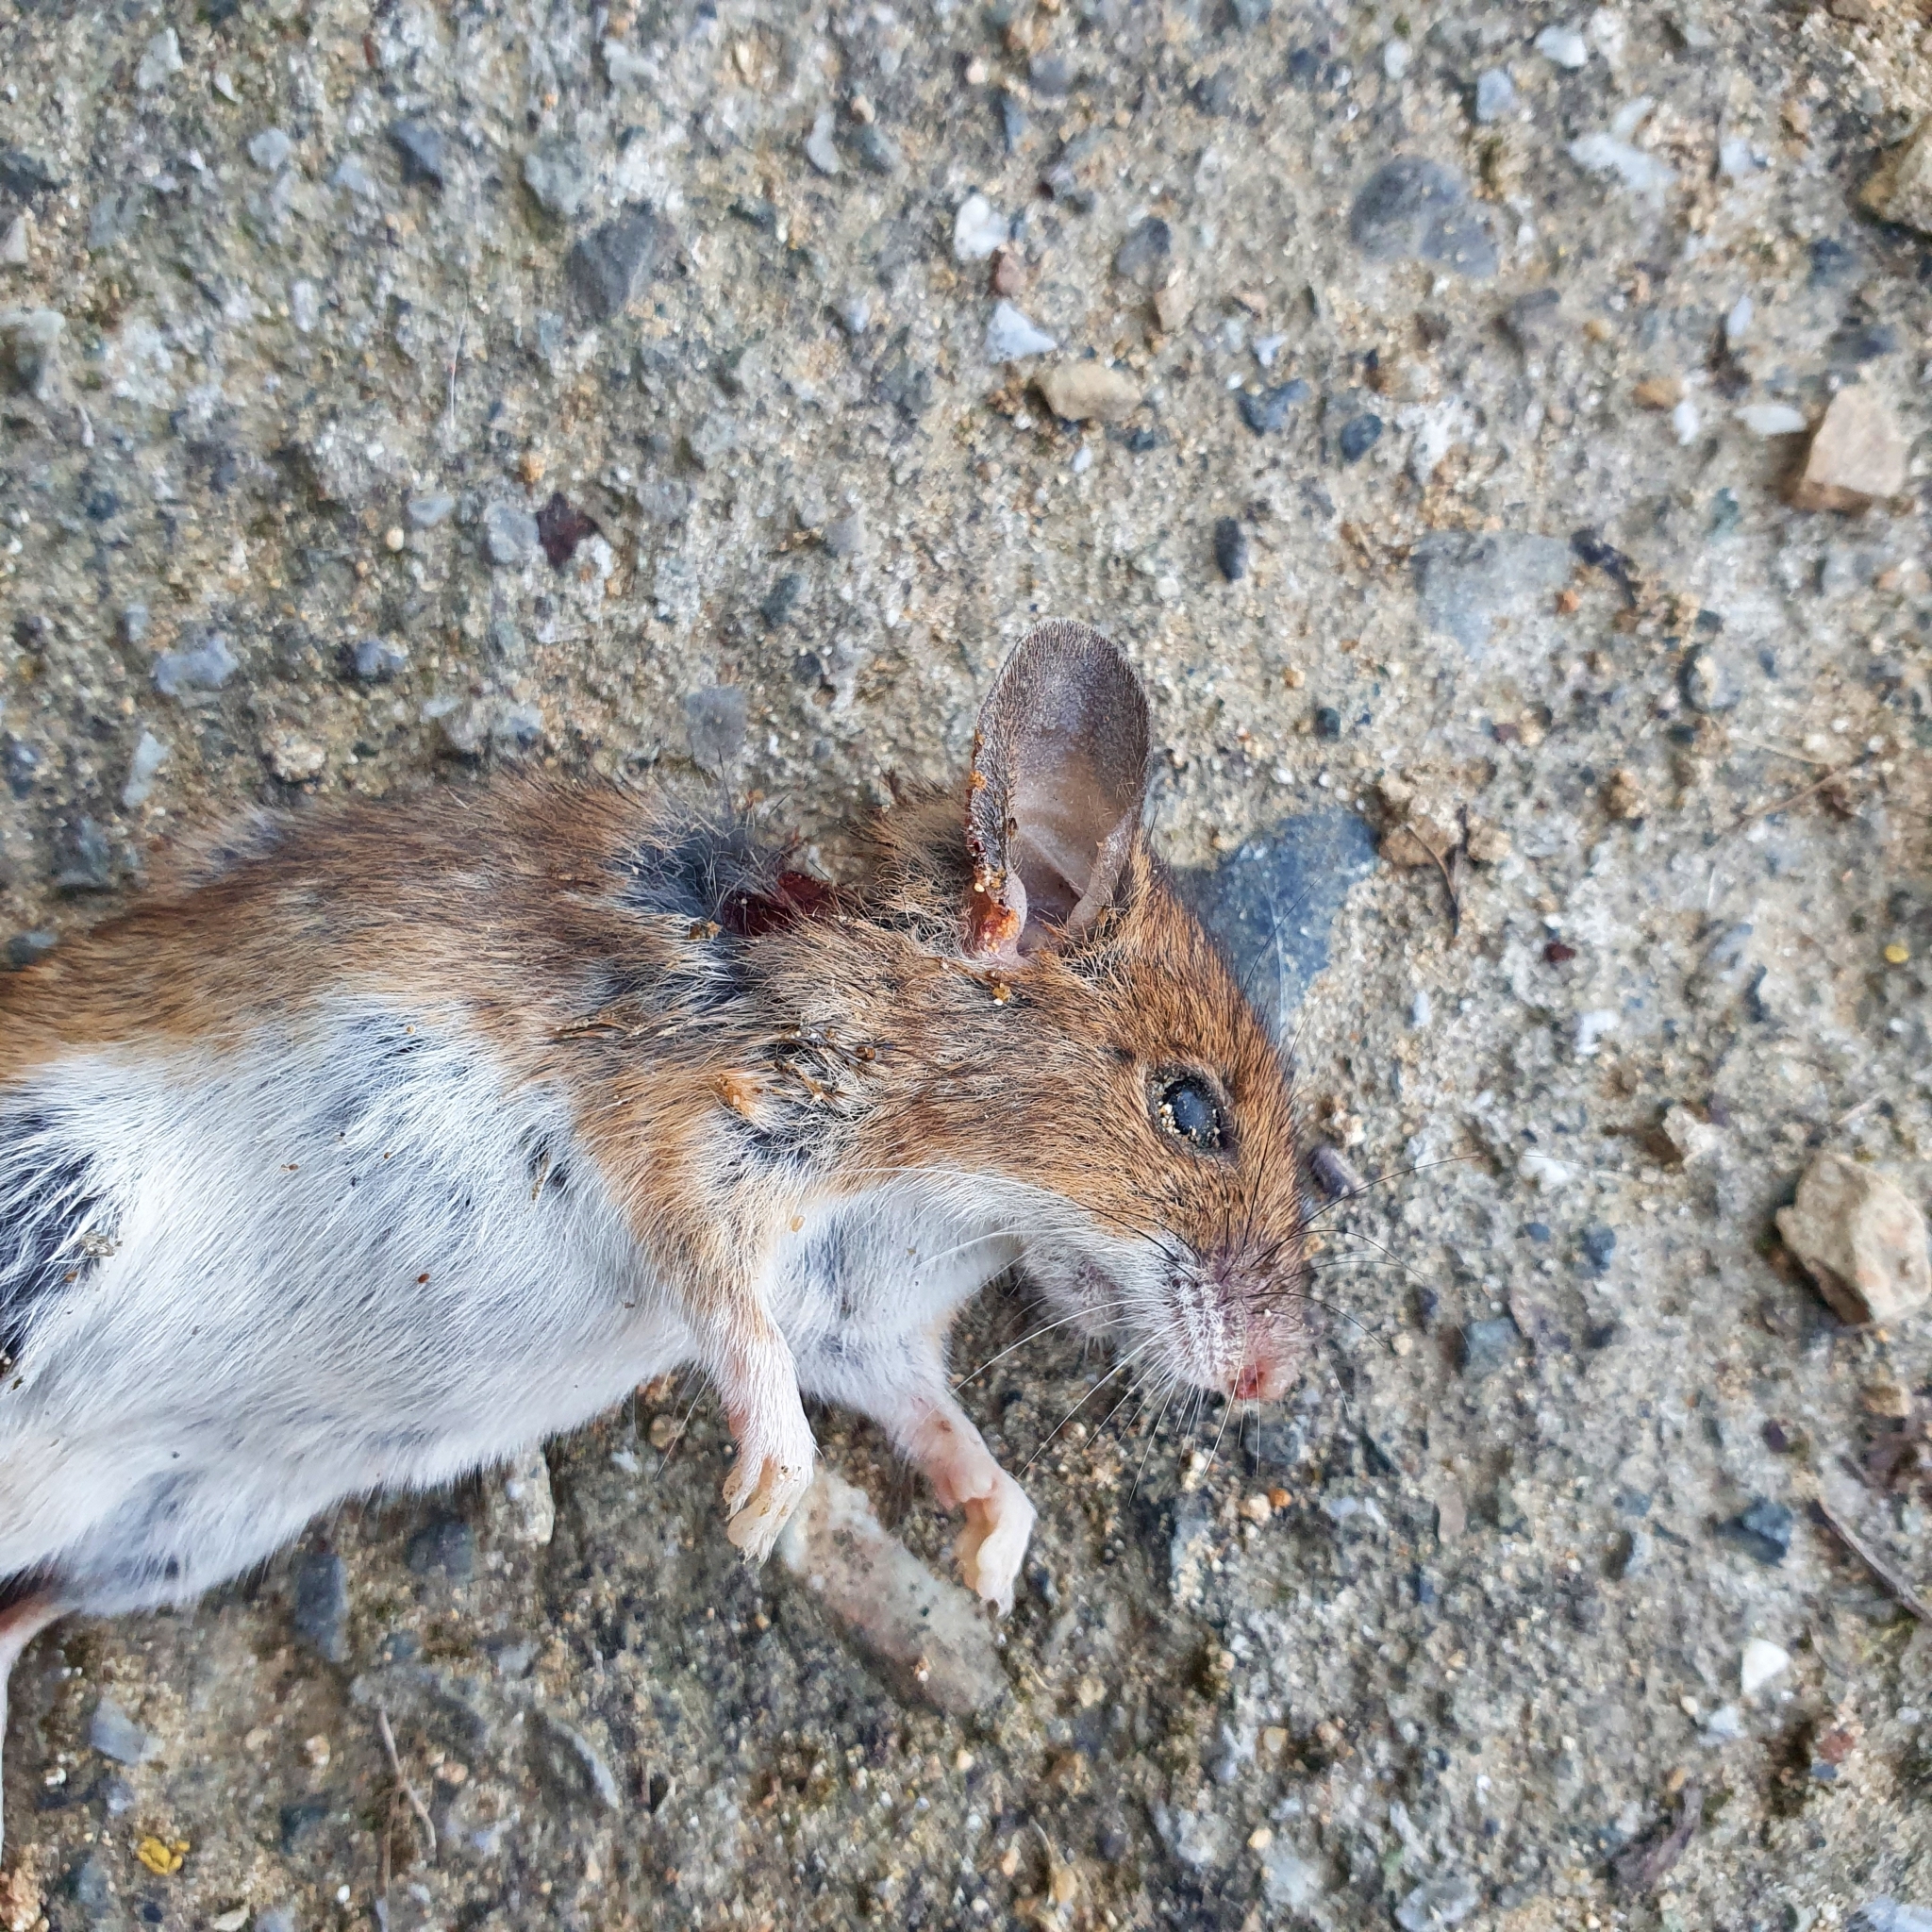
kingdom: Animalia
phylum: Chordata
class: Mammalia
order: Rodentia
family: Muridae
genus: Apodemus
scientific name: Apodemus sylvaticus
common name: Wood mouse
